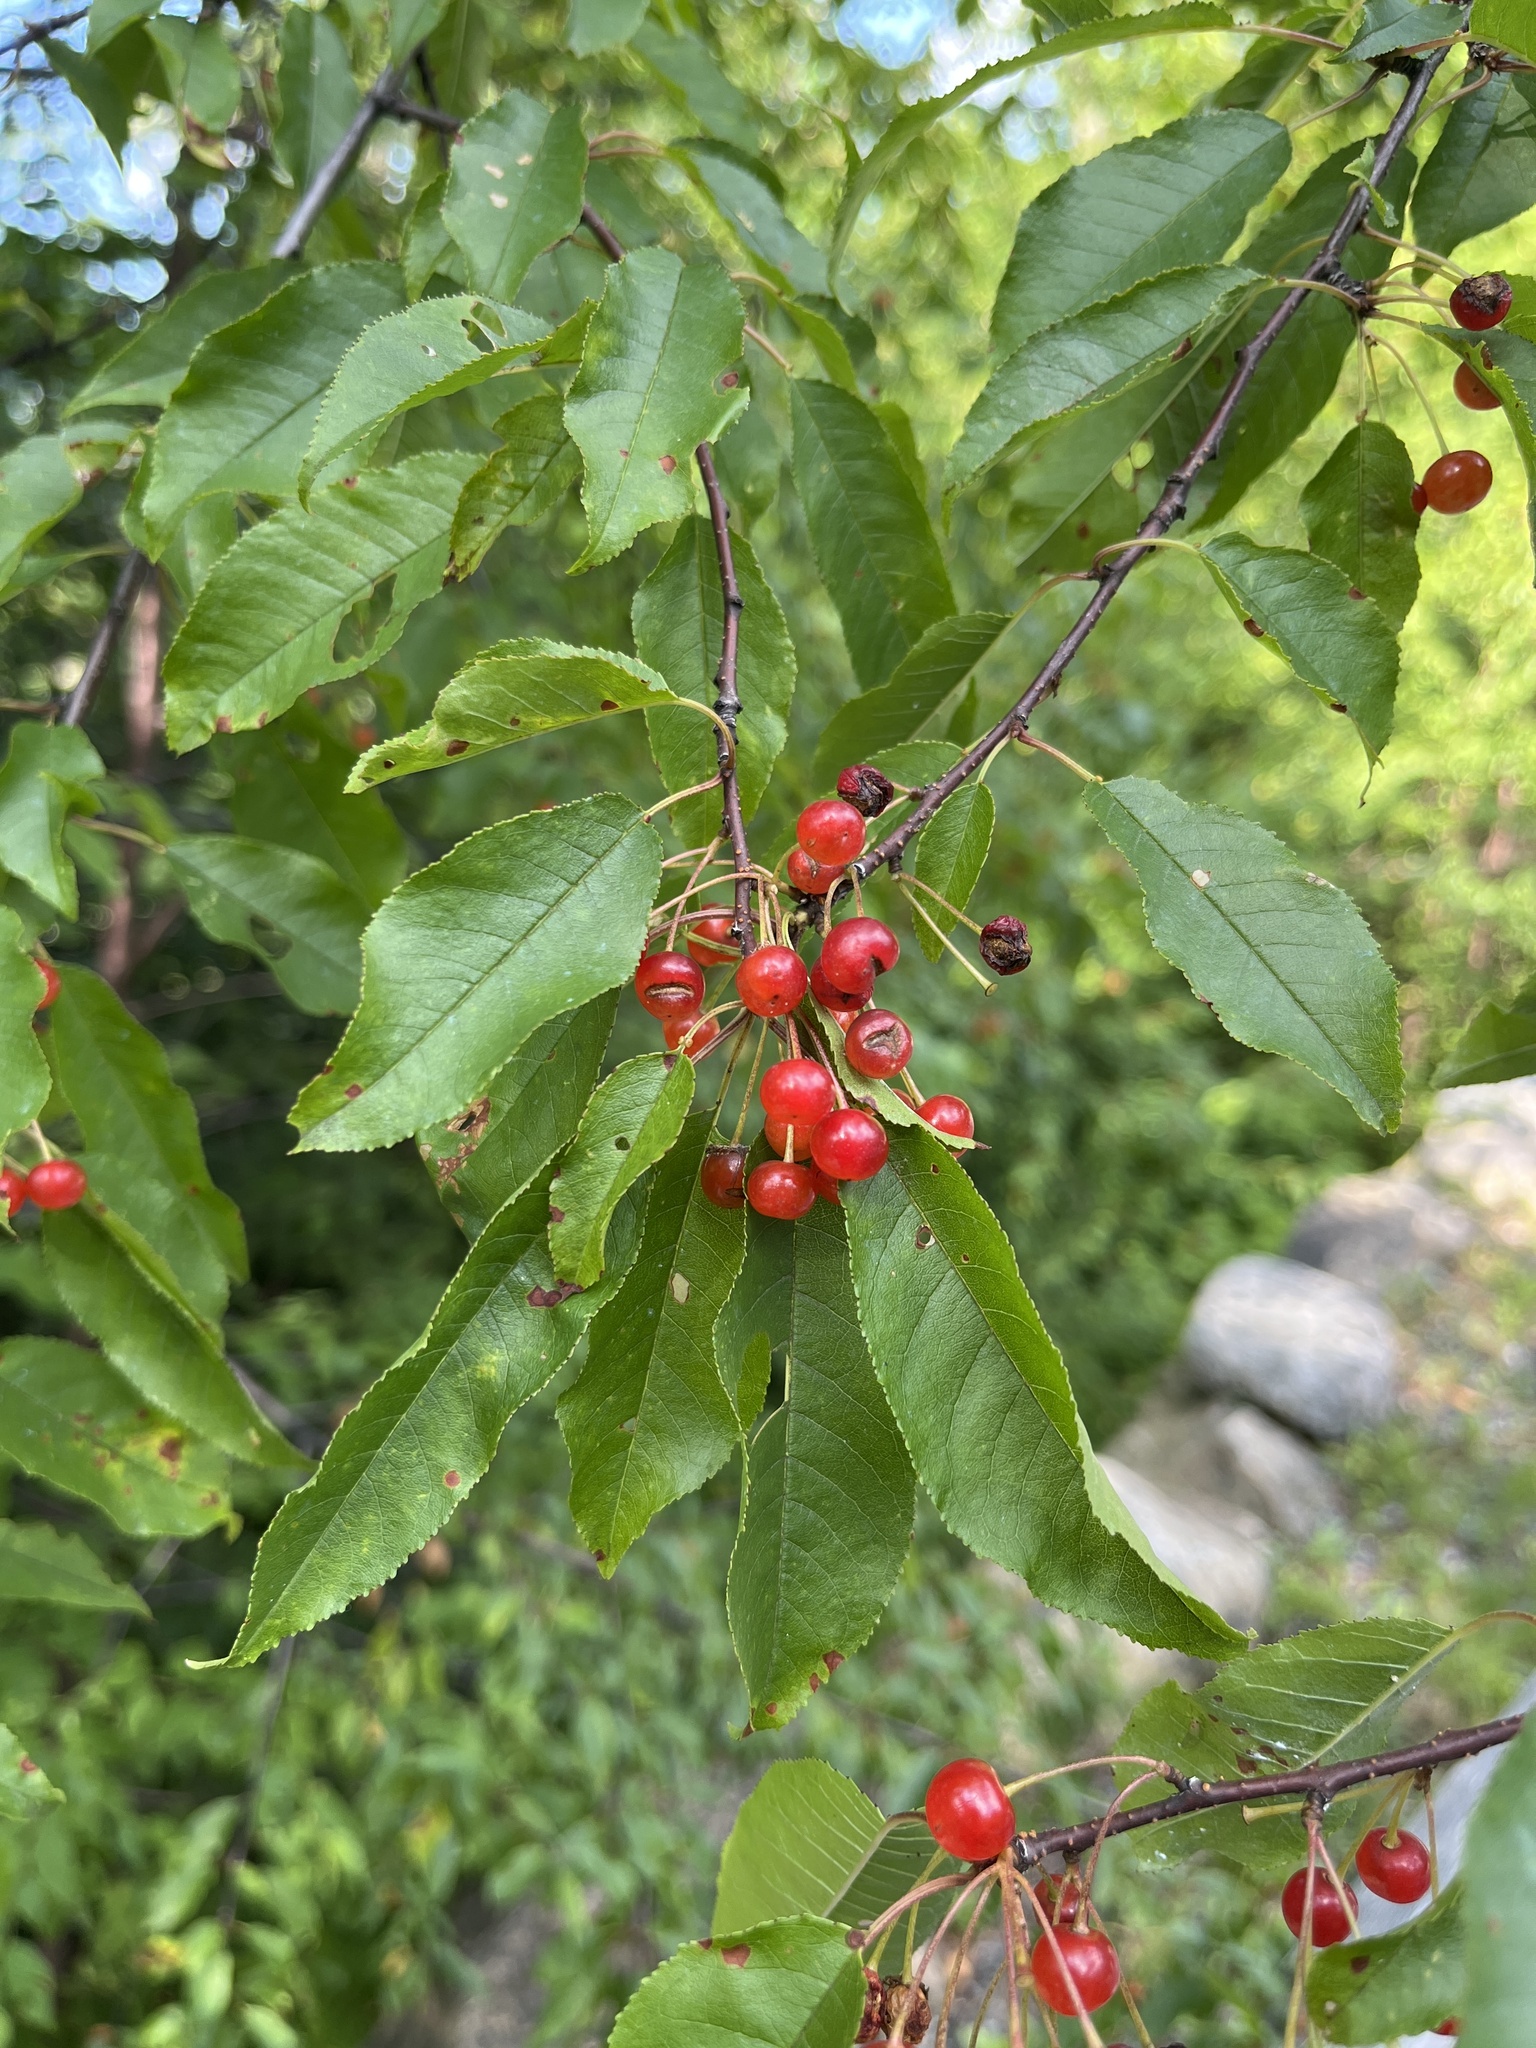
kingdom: Plantae
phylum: Tracheophyta
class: Magnoliopsida
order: Rosales
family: Rosaceae
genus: Prunus
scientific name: Prunus pensylvanica
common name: Pin cherry
